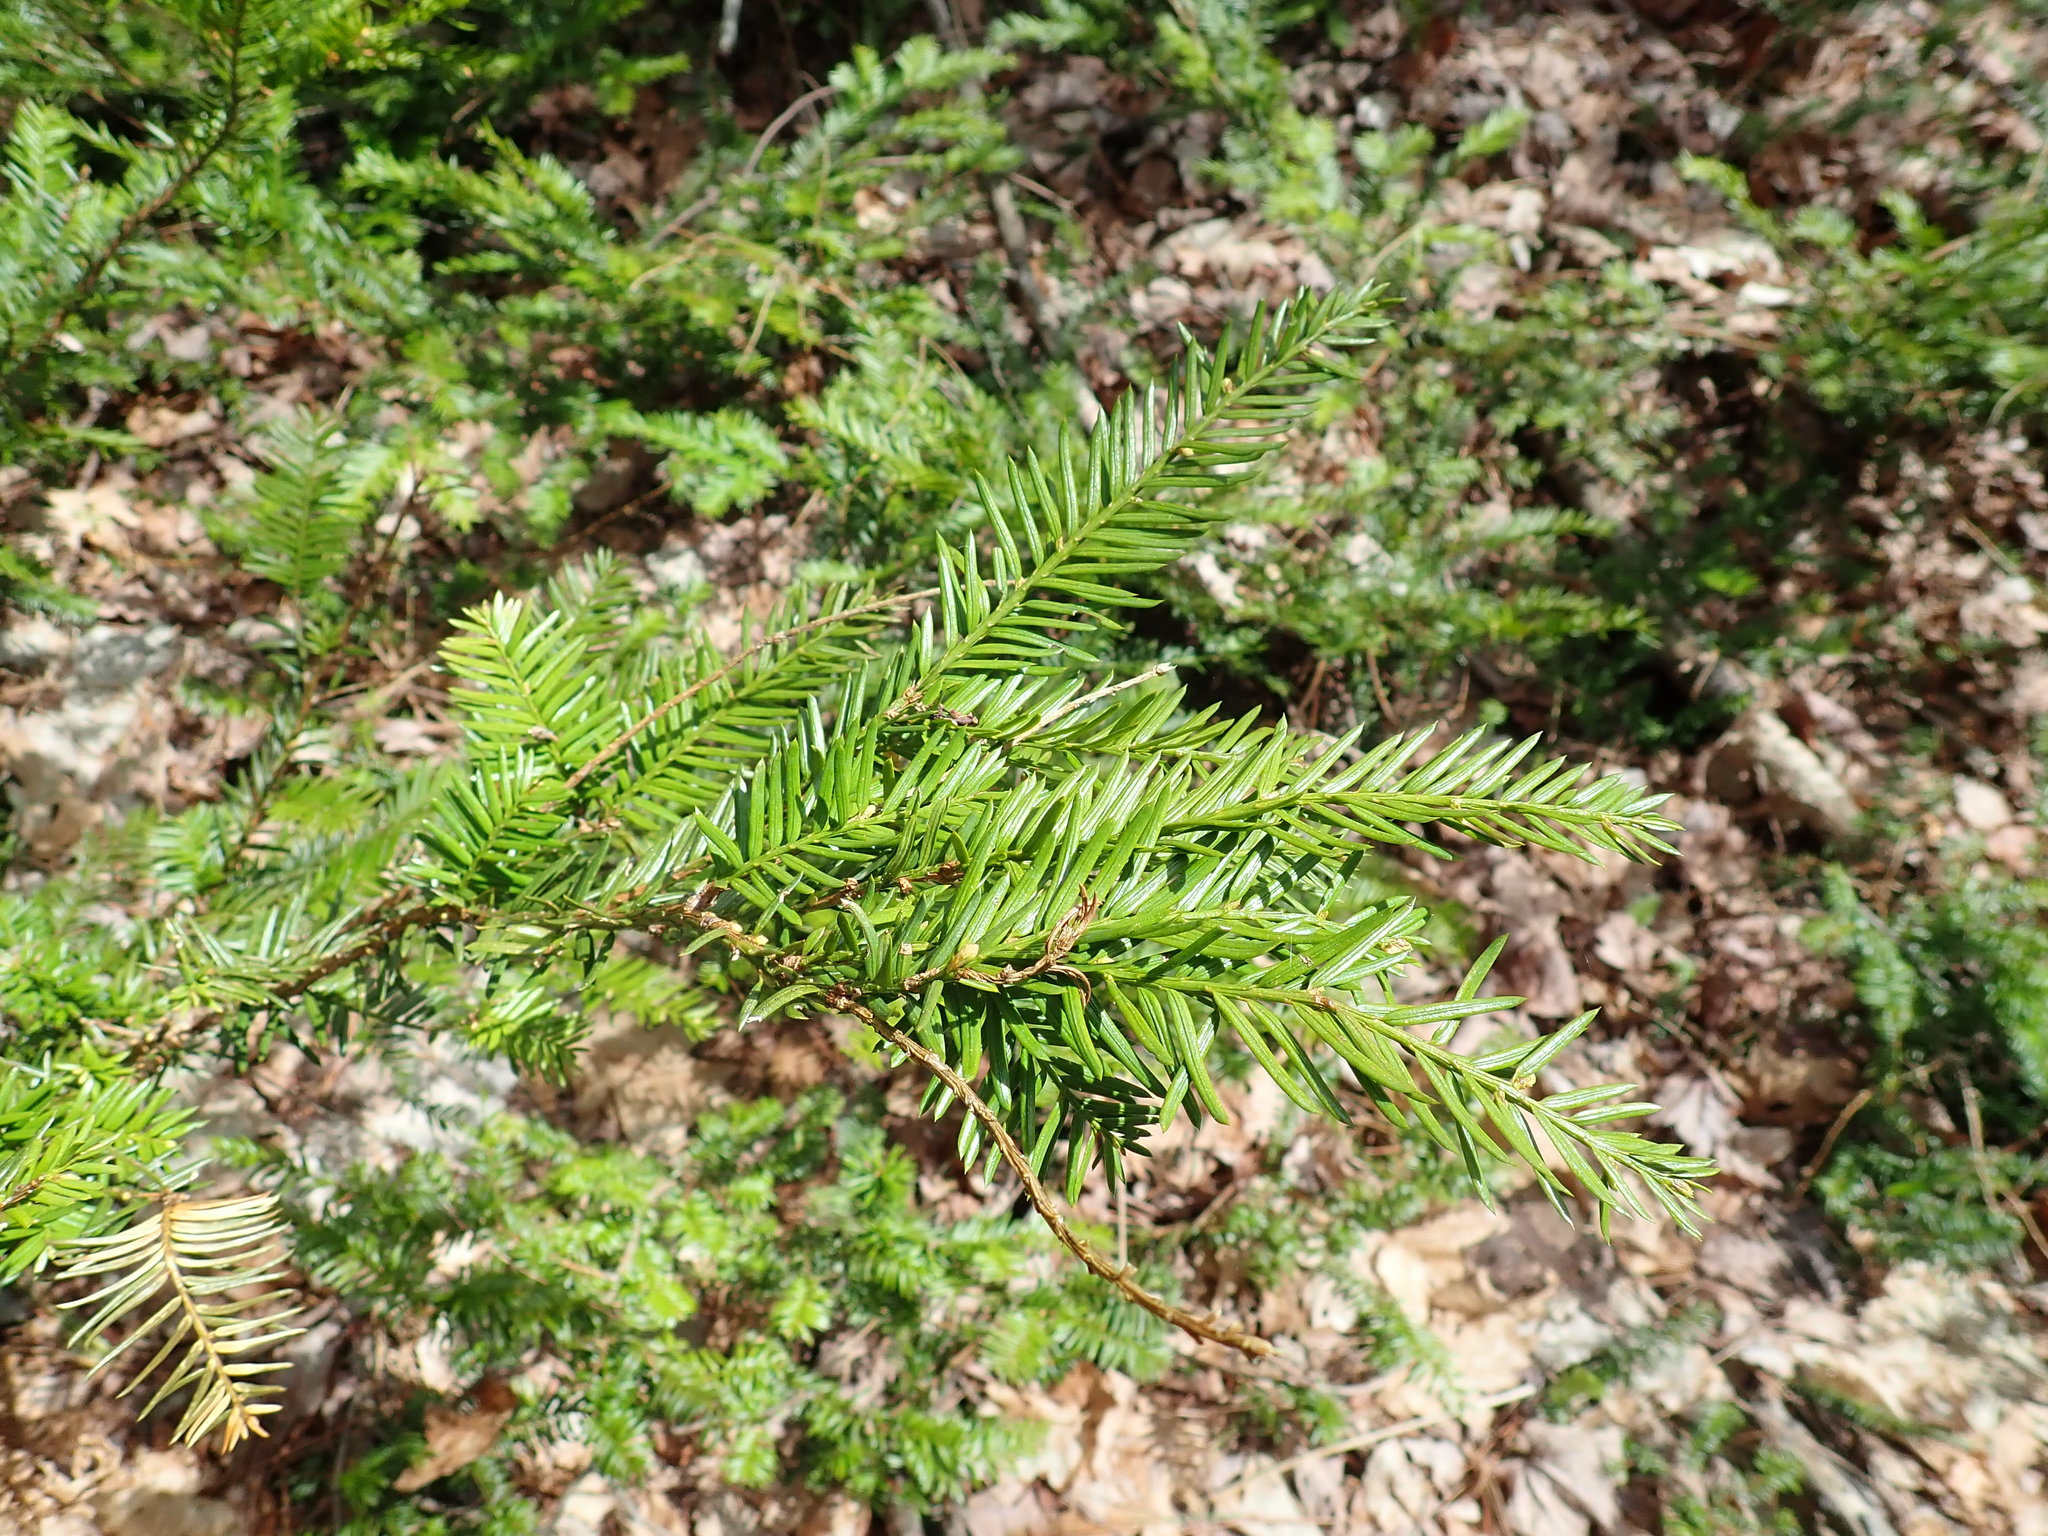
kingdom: Plantae
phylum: Tracheophyta
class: Pinopsida
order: Pinales
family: Taxaceae
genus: Taxus
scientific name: Taxus canadensis
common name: American yew
